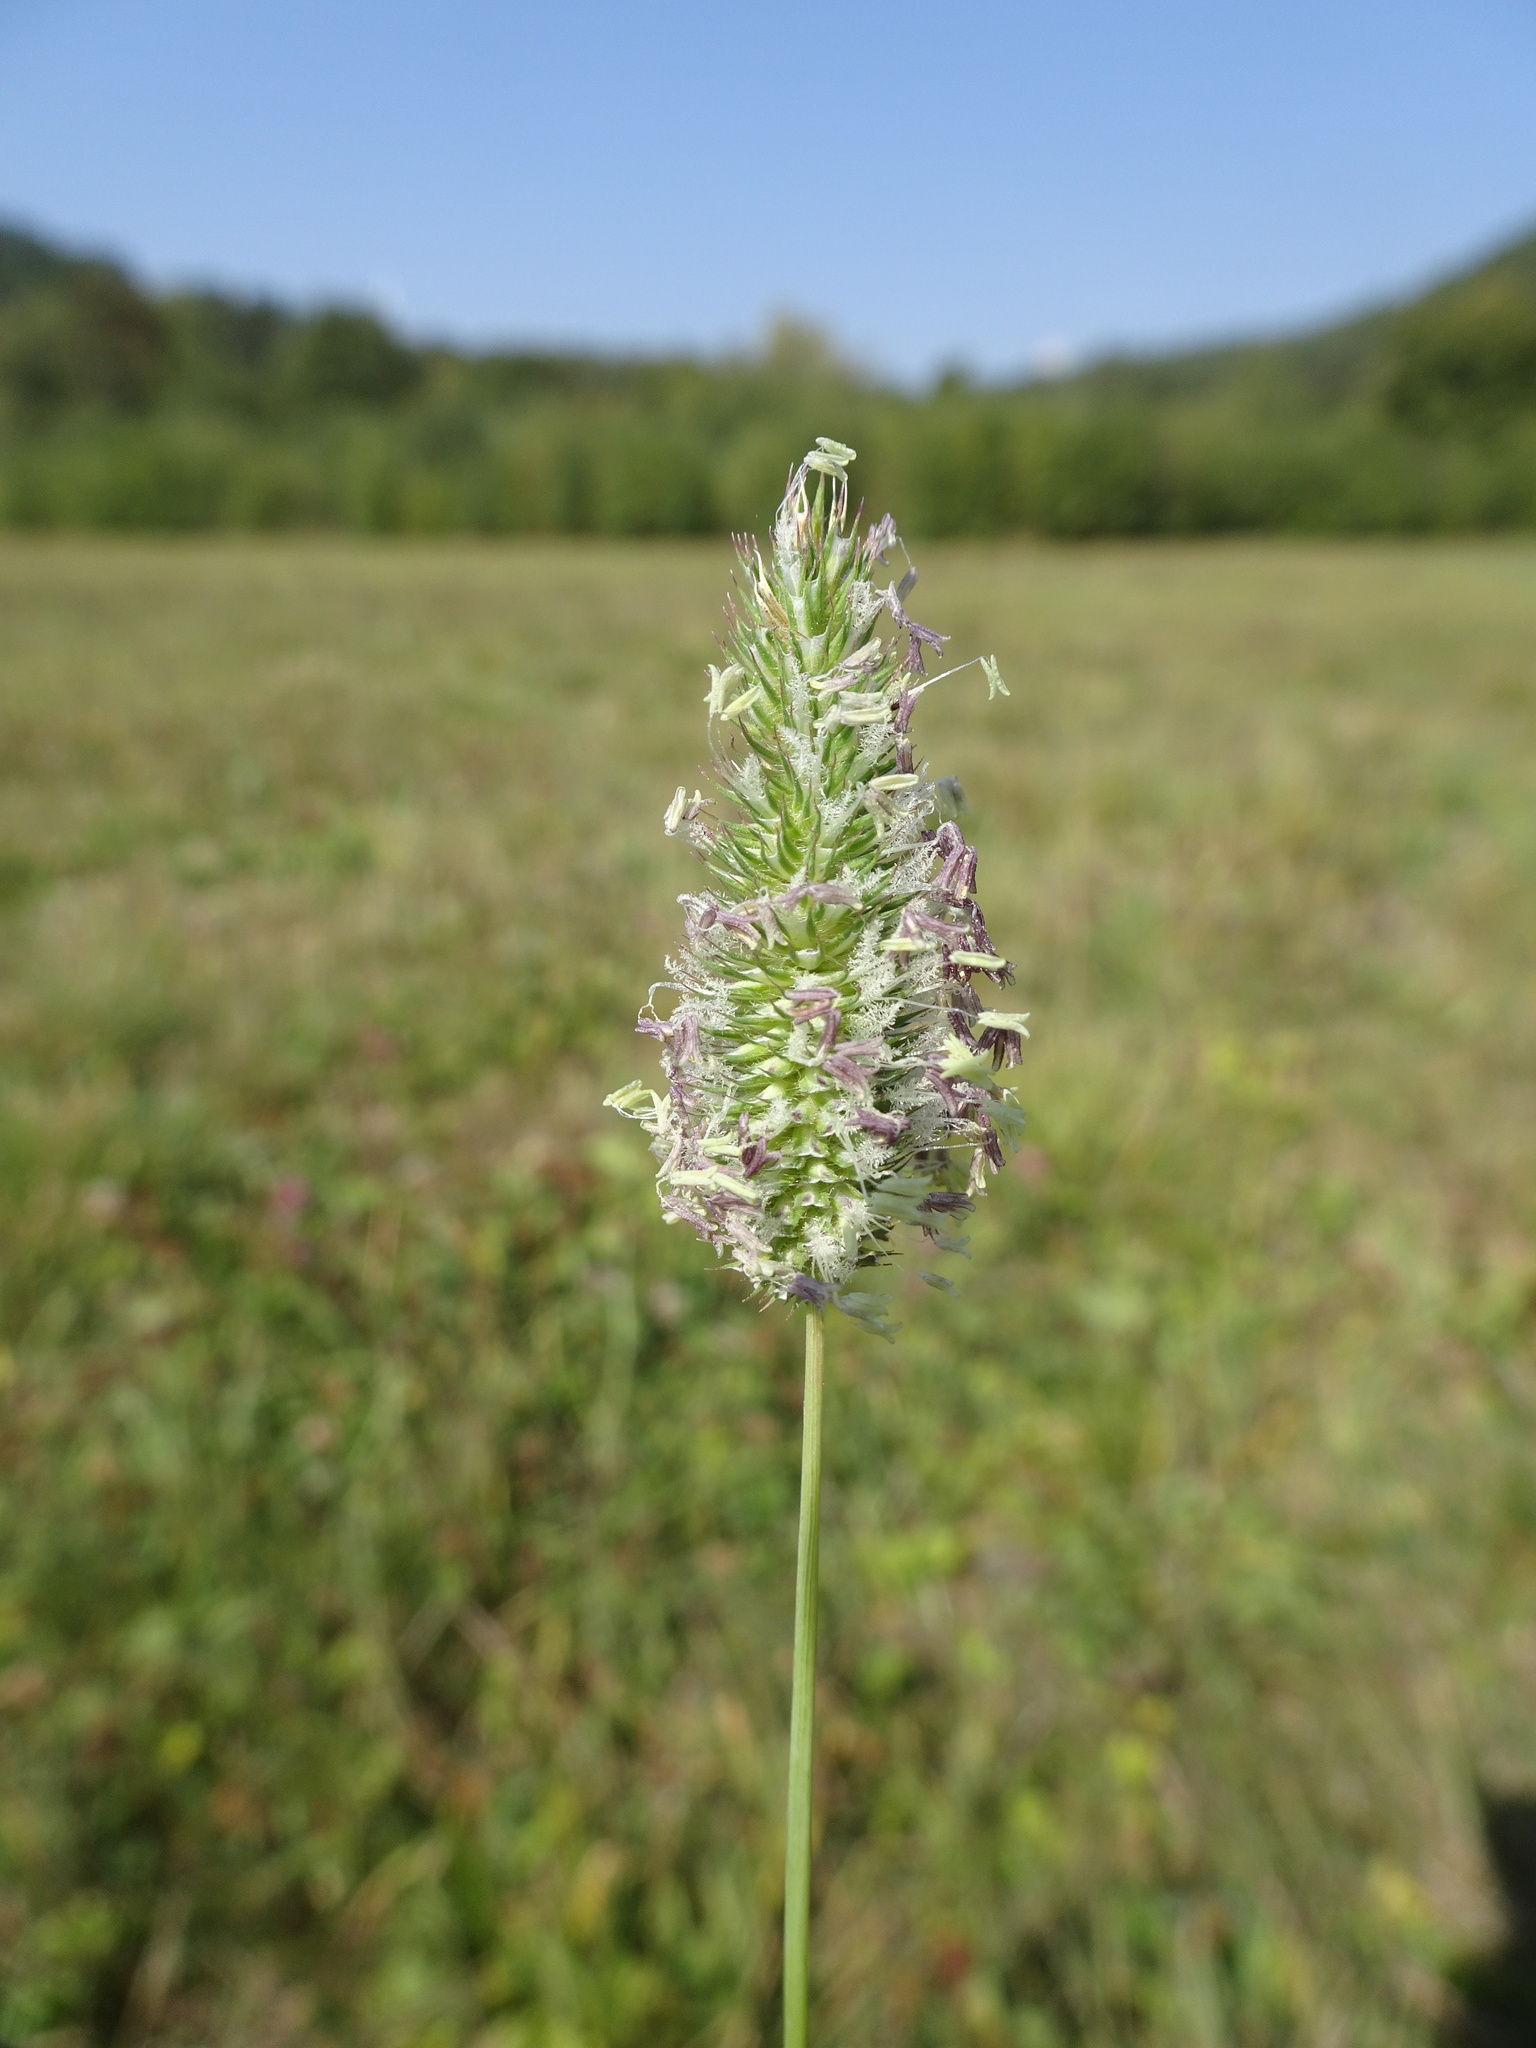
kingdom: Plantae
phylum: Tracheophyta
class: Liliopsida
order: Poales
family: Poaceae
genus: Phleum
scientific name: Phleum bertolonii
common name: Smaller cat's-tail
